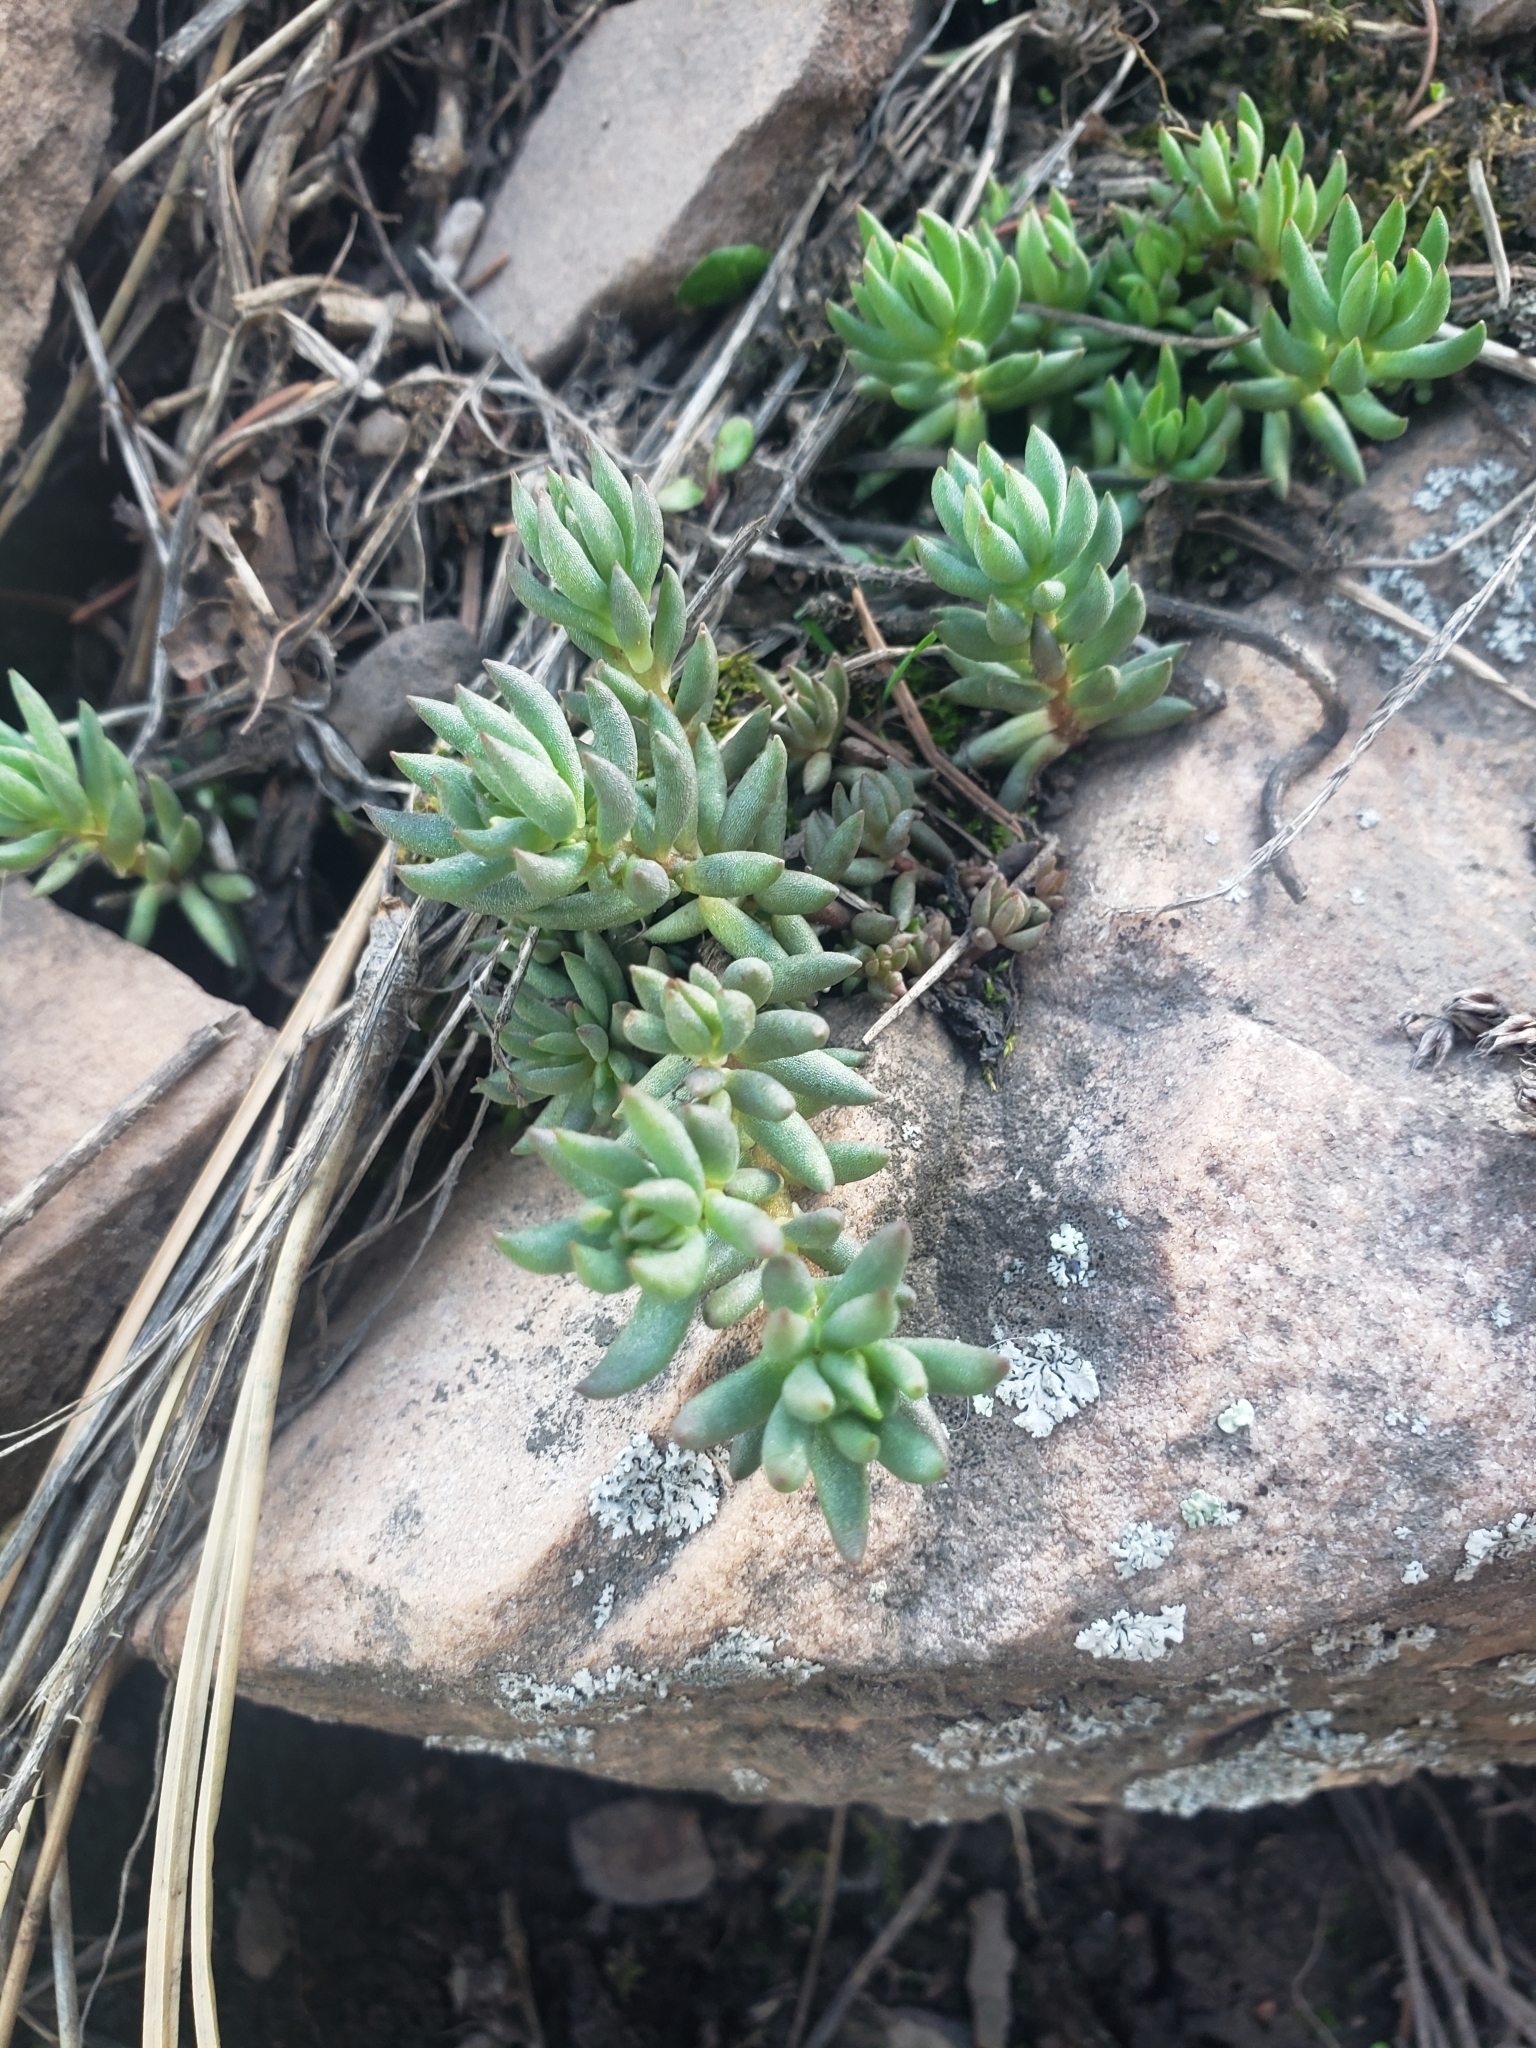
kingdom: Plantae
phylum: Tracheophyta
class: Magnoliopsida
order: Saxifragales
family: Crassulaceae
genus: Sedum
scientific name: Sedum lanceolatum
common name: Common stonecrop
